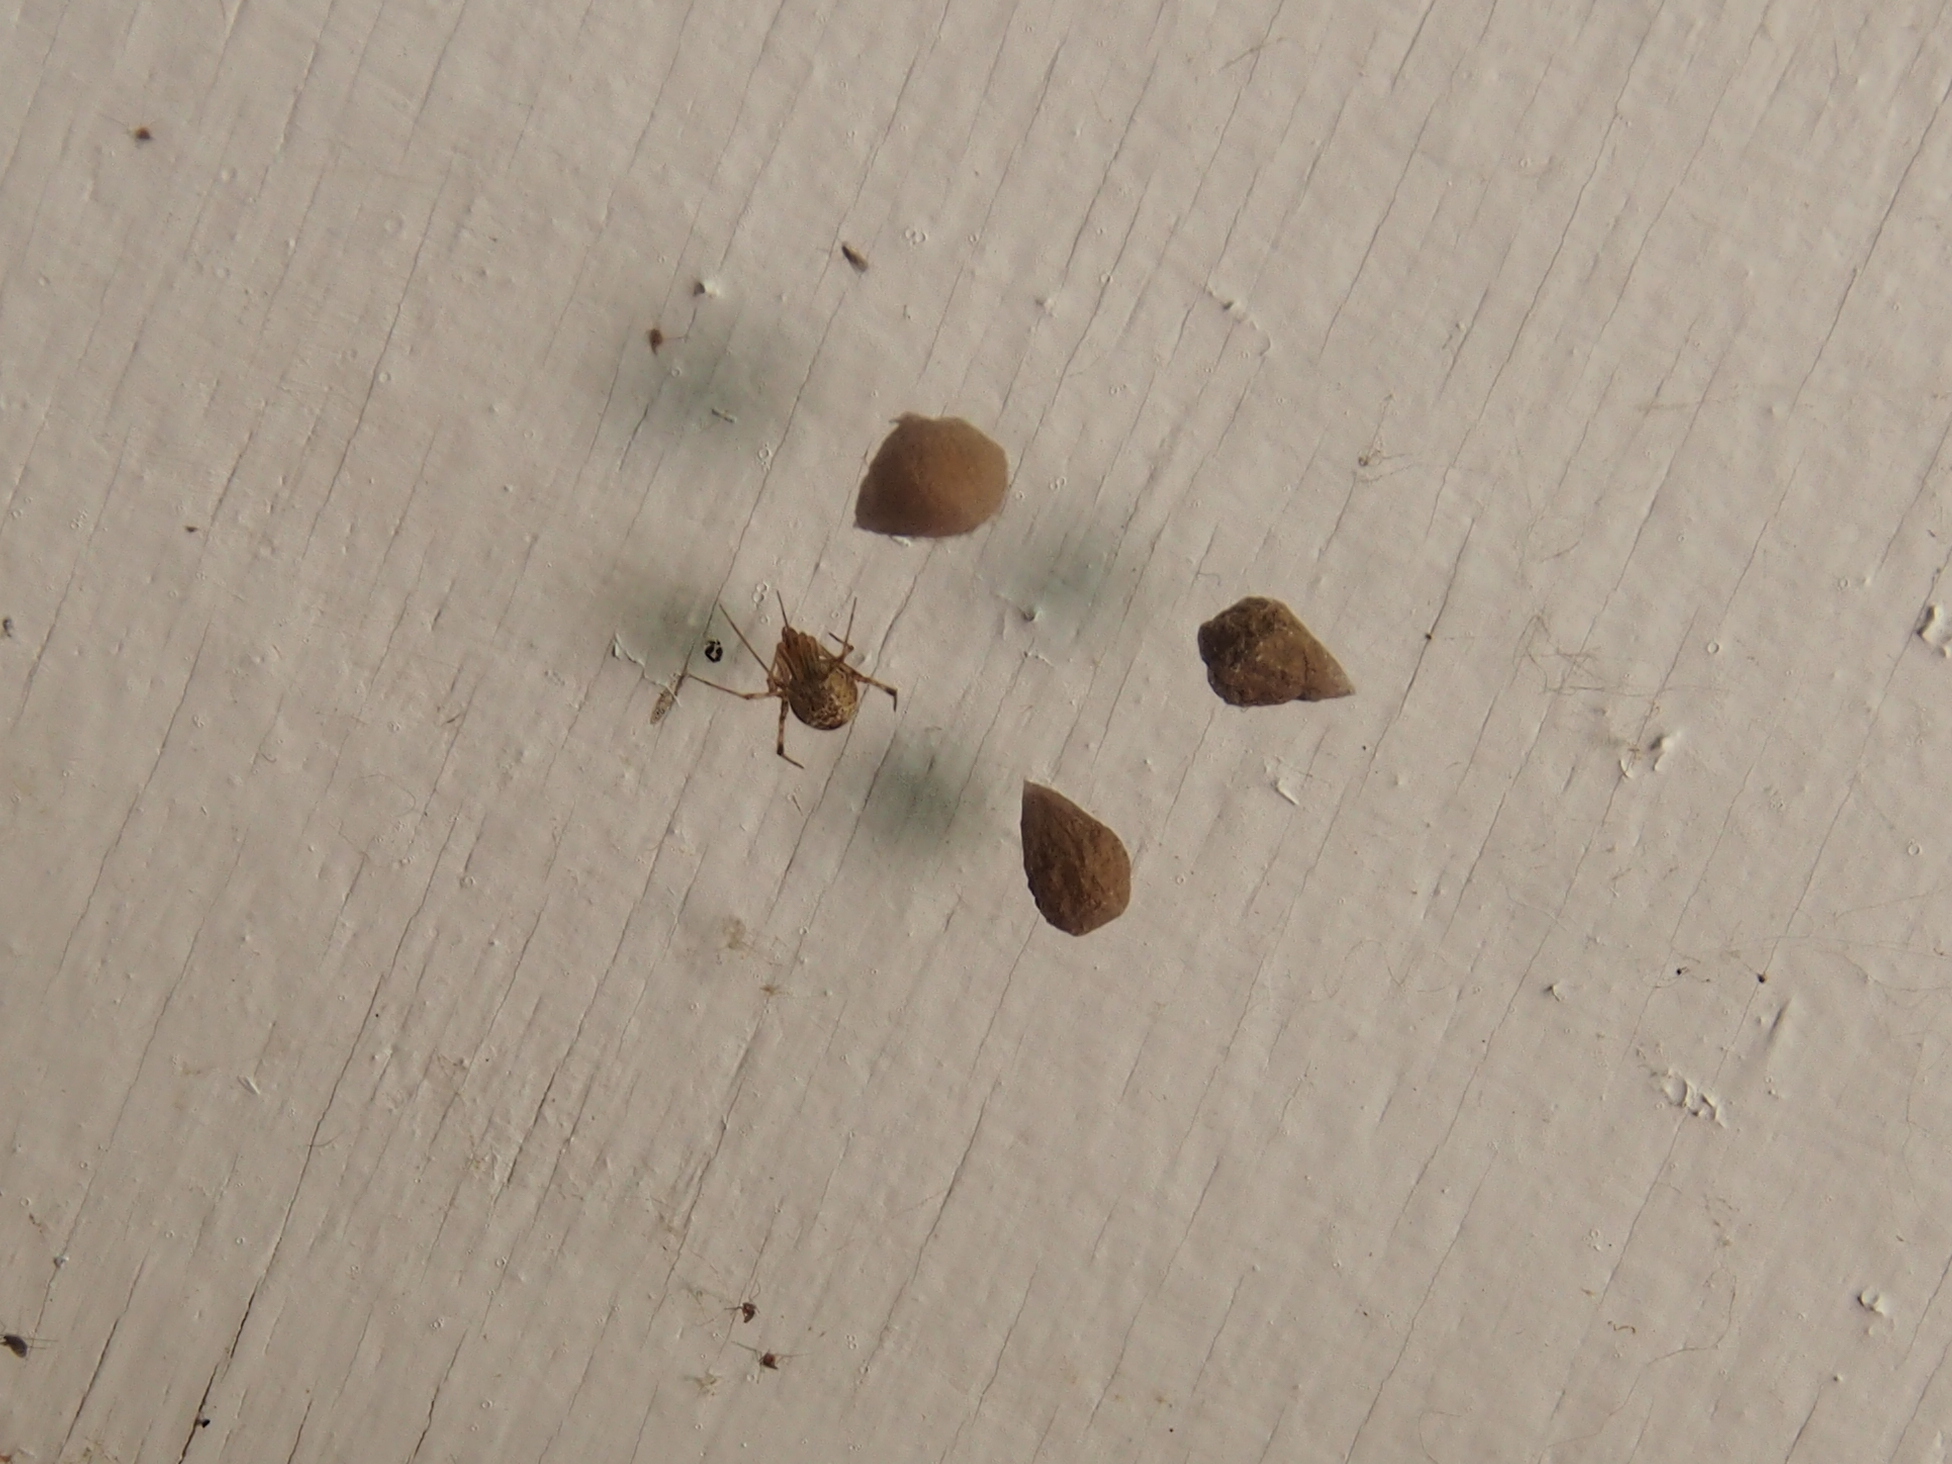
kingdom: Animalia
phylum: Arthropoda
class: Arachnida
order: Araneae
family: Theridiidae
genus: Parasteatoda
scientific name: Parasteatoda tepidariorum
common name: Common house spider
